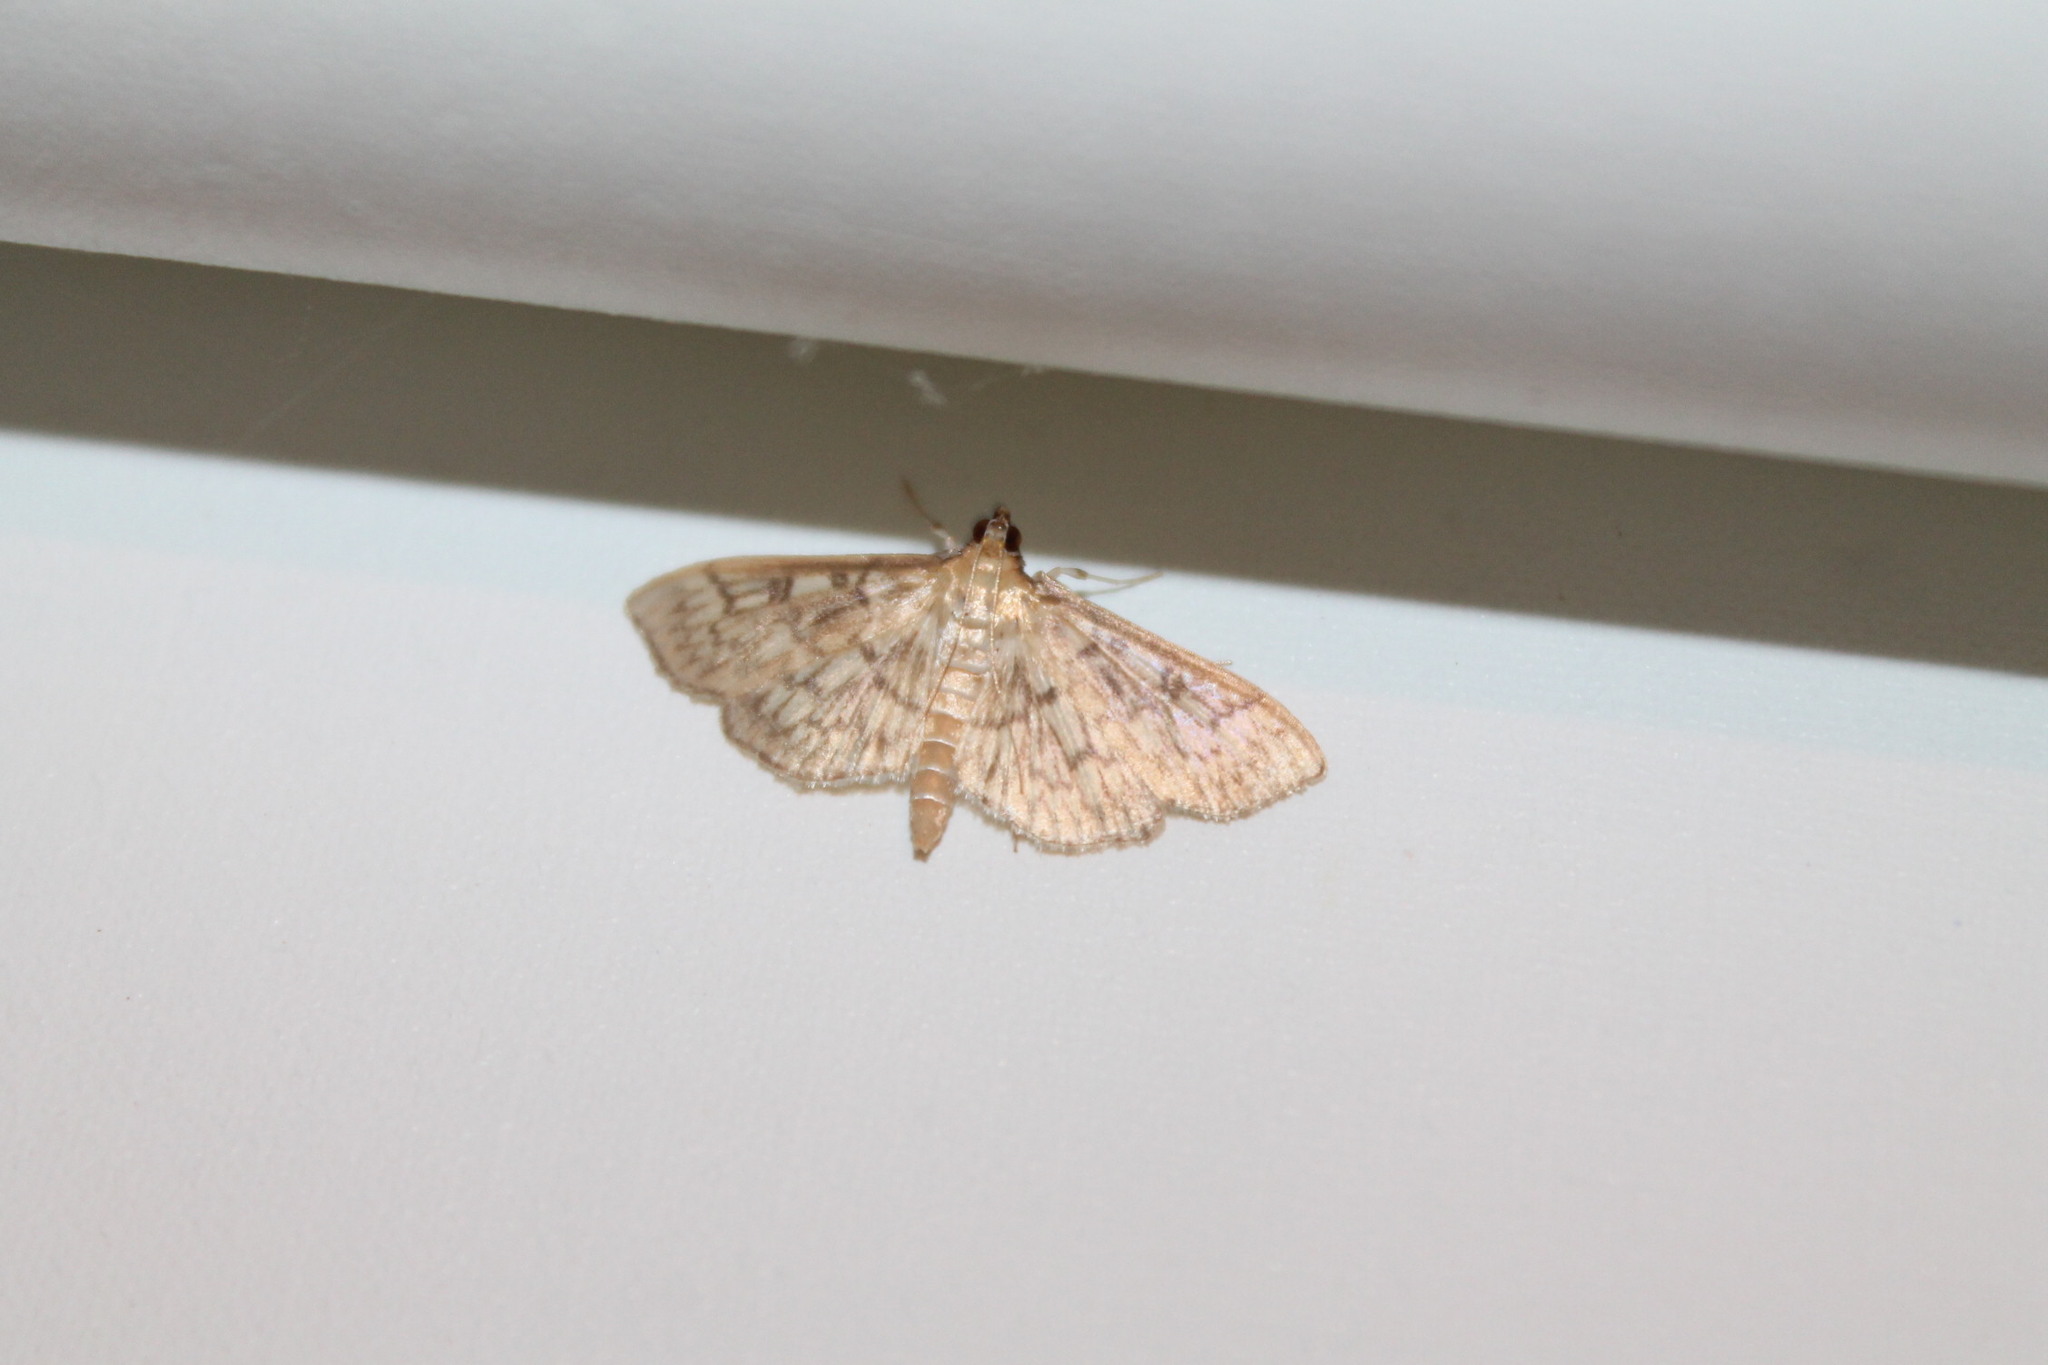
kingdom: Animalia
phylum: Arthropoda
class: Insecta
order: Lepidoptera
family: Crambidae
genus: Herpetogramma
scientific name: Herpetogramma pertextalis
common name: Bold-feathered grass moth
